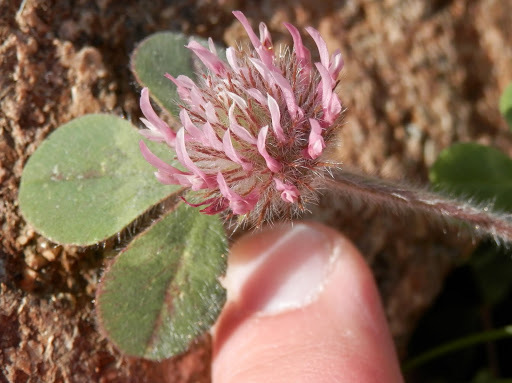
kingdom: Plantae
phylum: Tracheophyta
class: Magnoliopsida
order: Fabales
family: Fabaceae
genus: Trifolium
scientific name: Trifolium hirtum
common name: Rose clover
